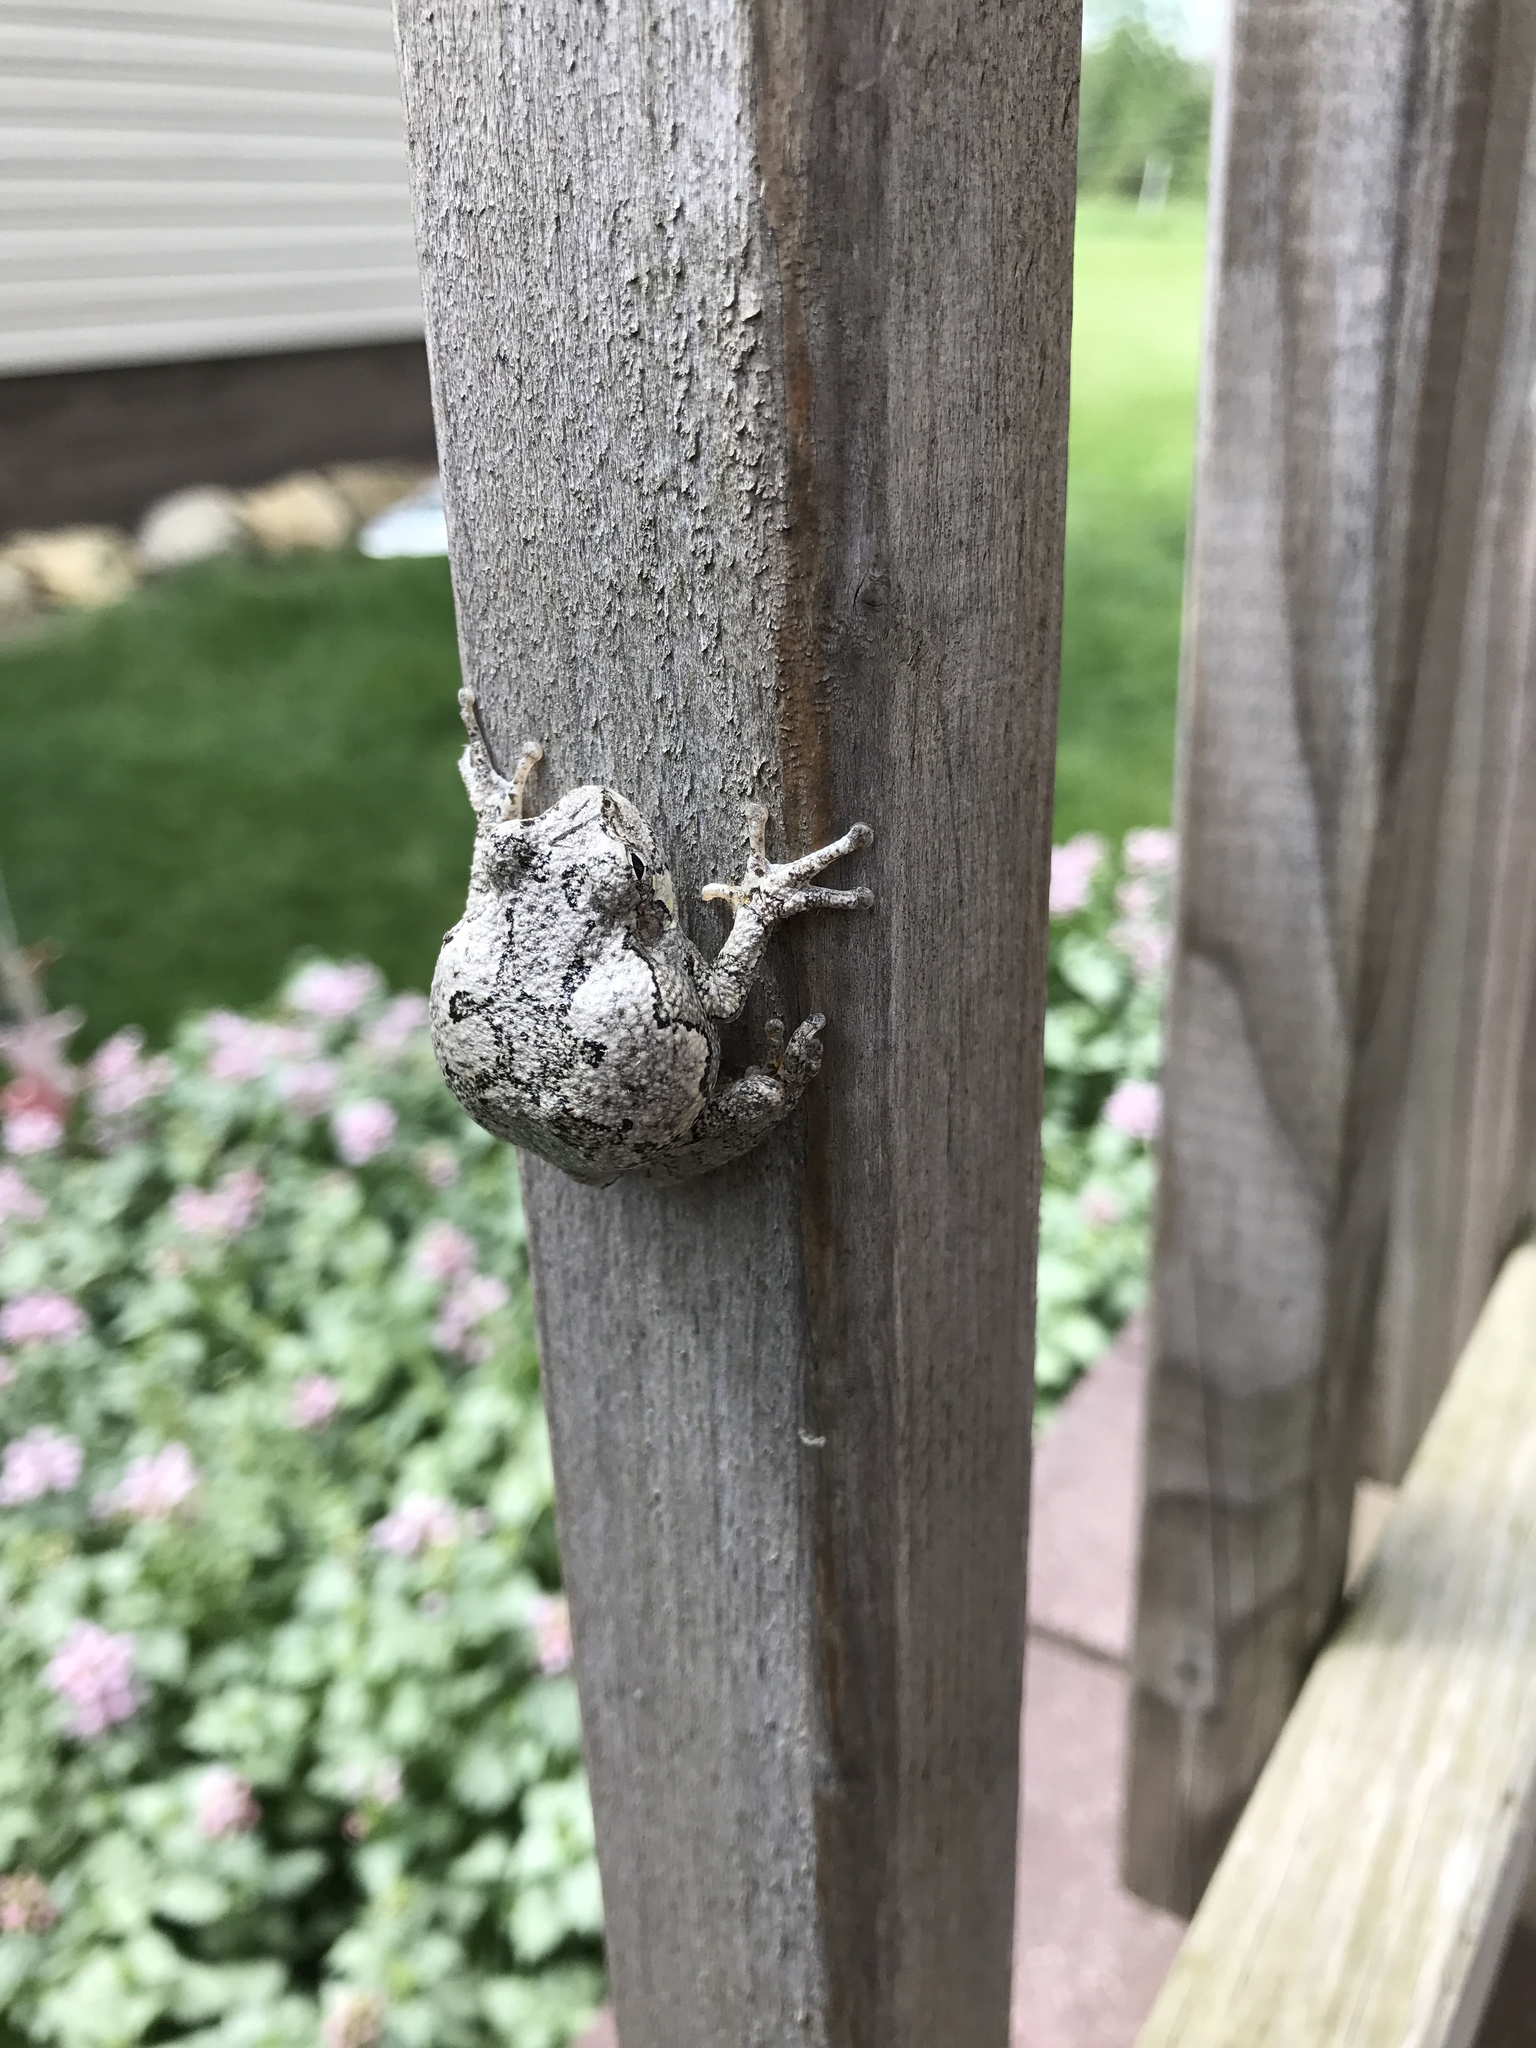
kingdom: Animalia
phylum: Chordata
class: Amphibia
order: Anura
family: Hylidae
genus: Dryophytes
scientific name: Dryophytes versicolor
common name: Gray treefrog
